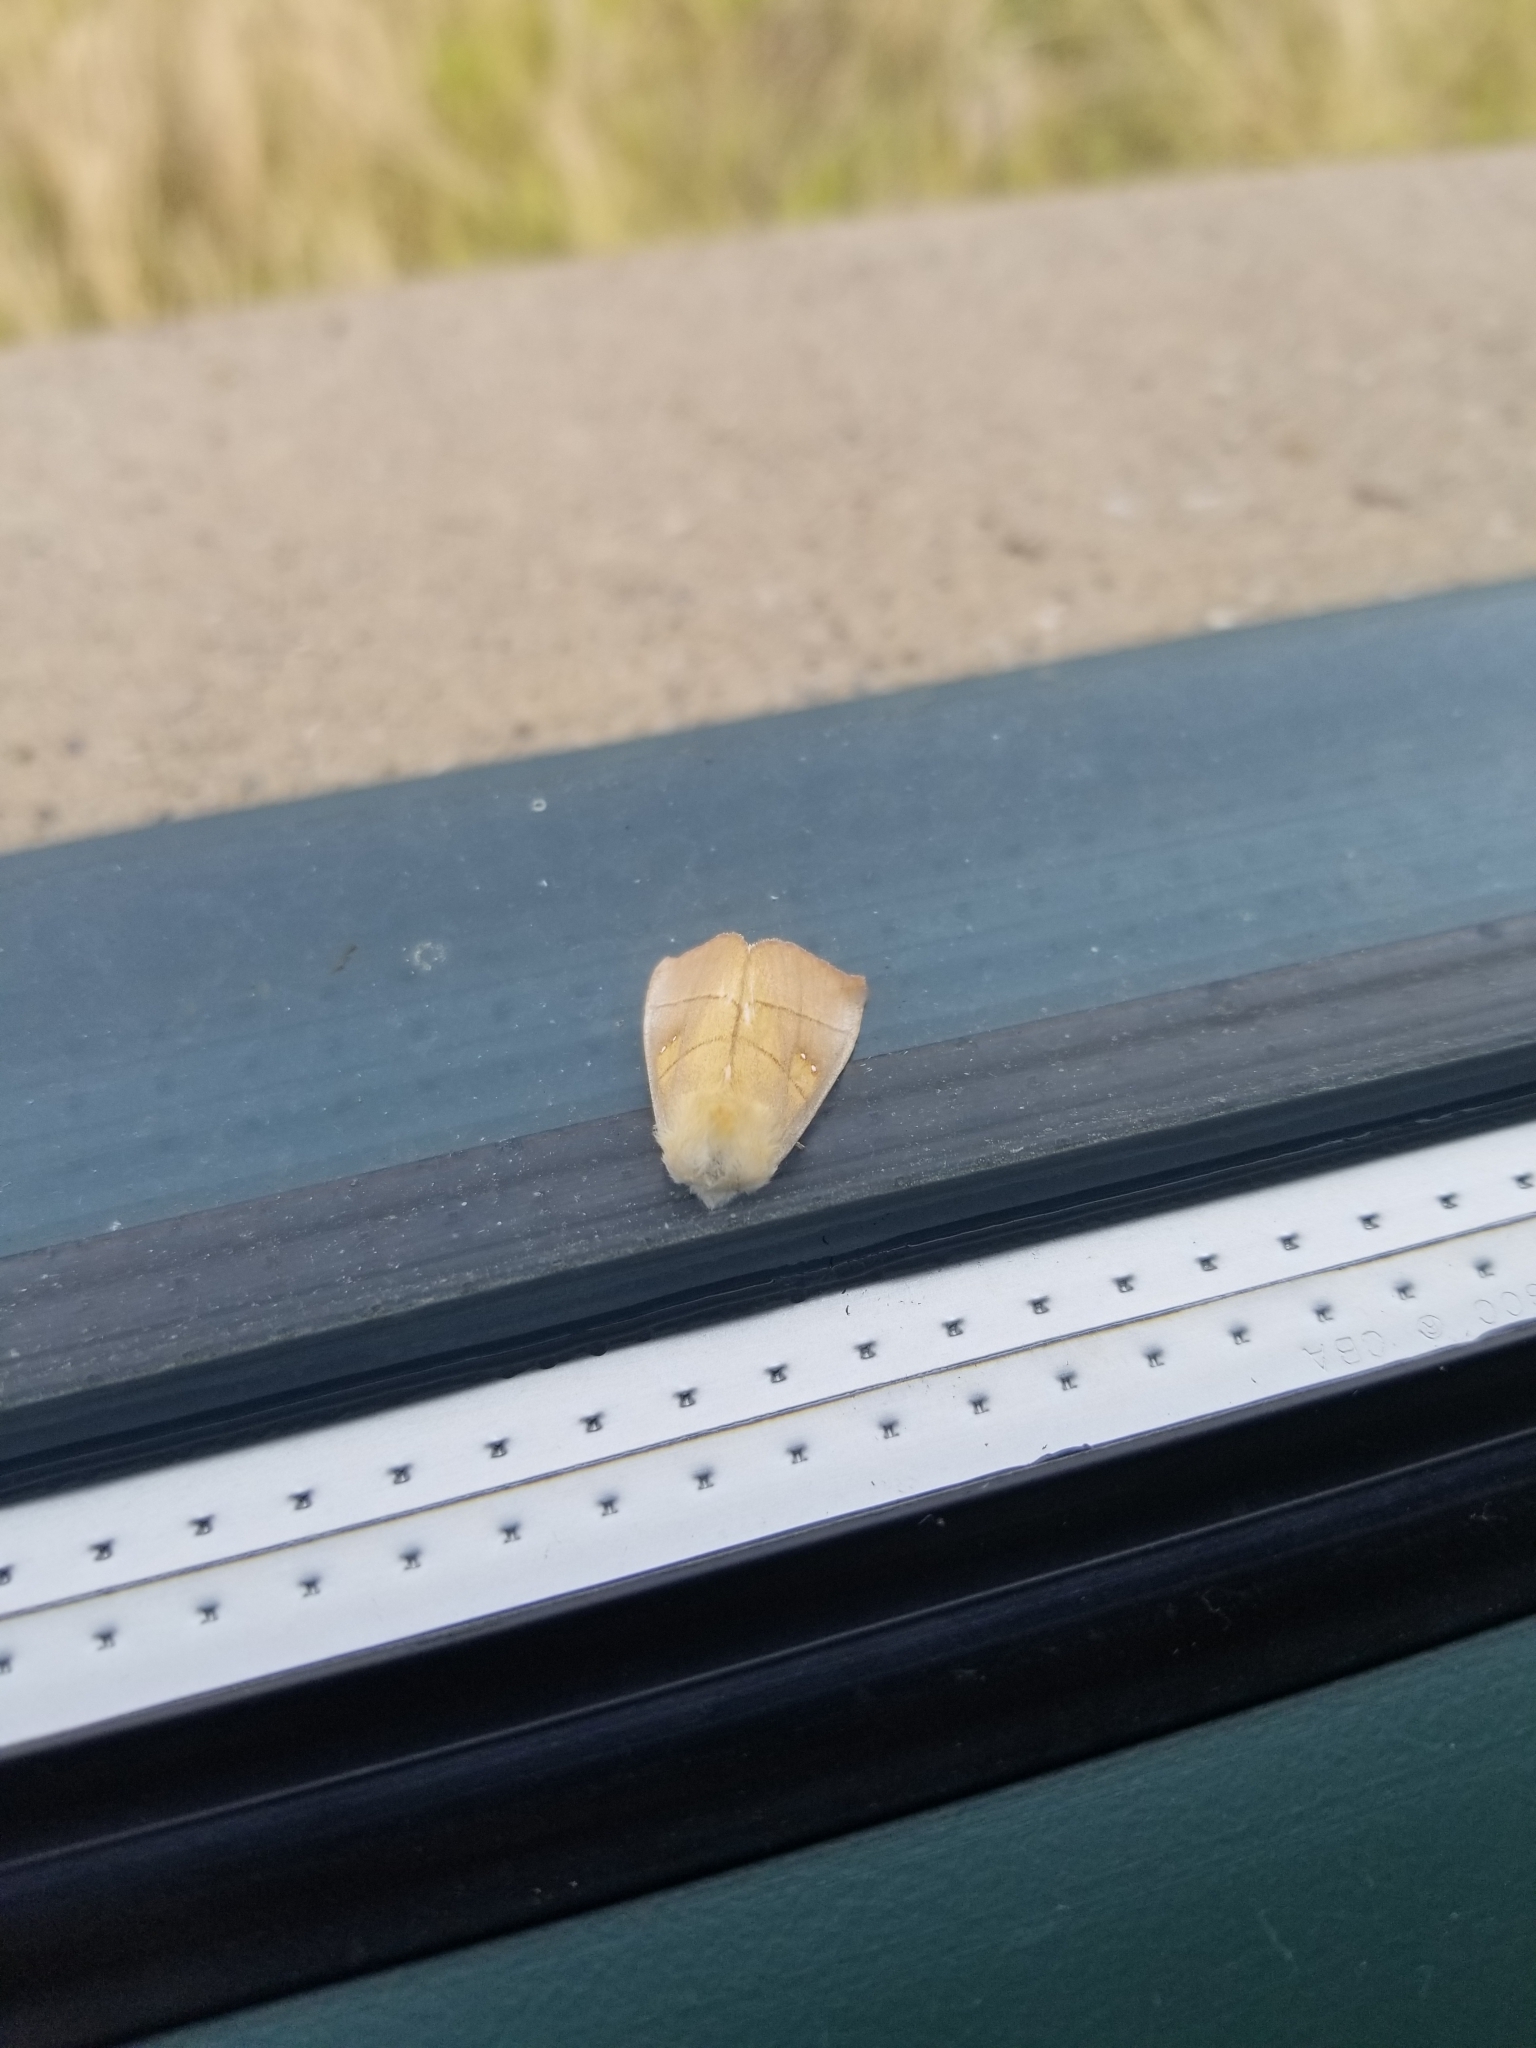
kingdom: Animalia
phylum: Arthropoda
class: Insecta
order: Lepidoptera
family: Notodontidae
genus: Nadata
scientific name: Nadata gibbosa
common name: White-dotted prominent
